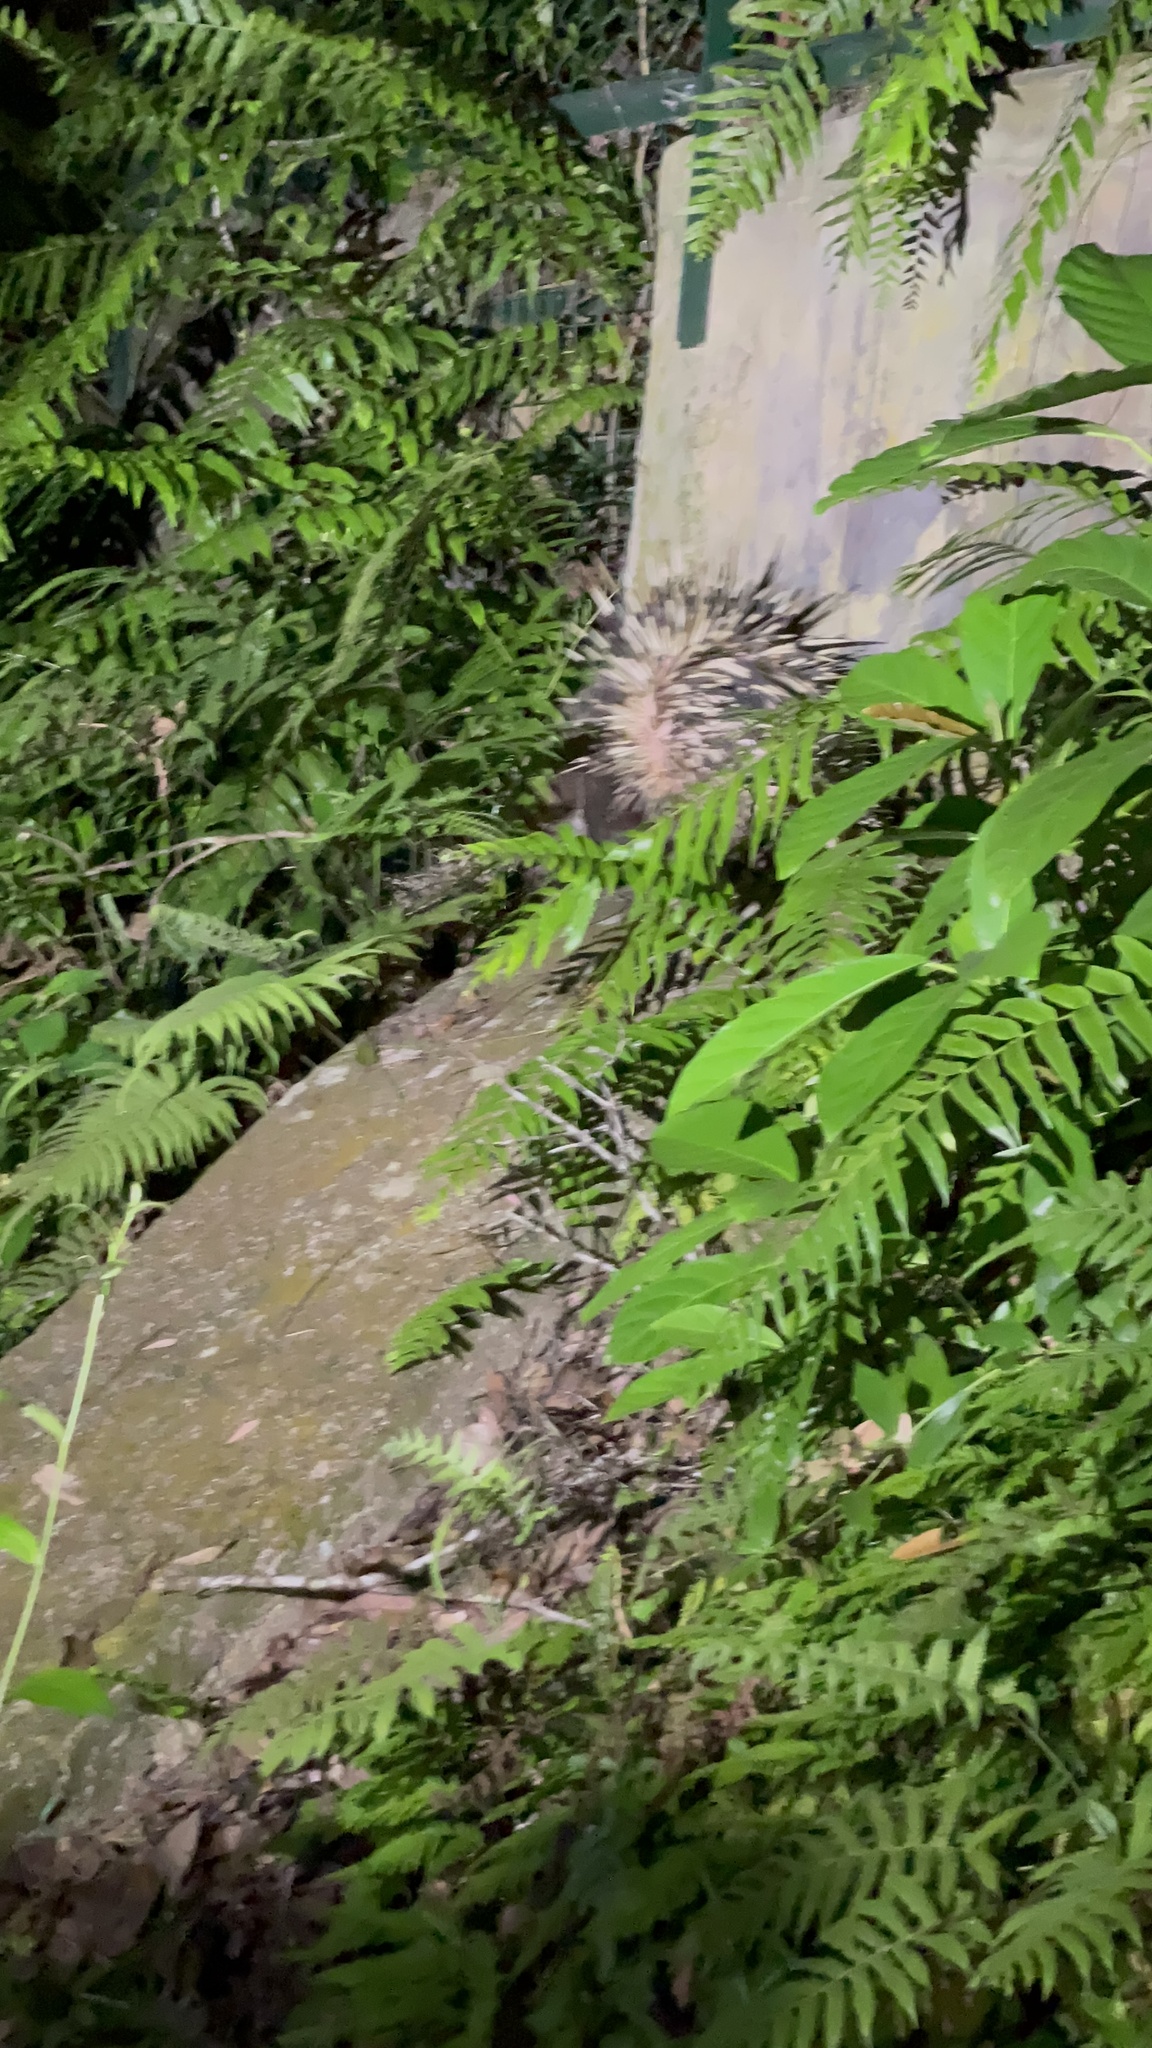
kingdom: Animalia
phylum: Chordata
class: Mammalia
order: Rodentia
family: Hystricidae
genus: Hystrix
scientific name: Hystrix brachyura
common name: Malayan porcupine
